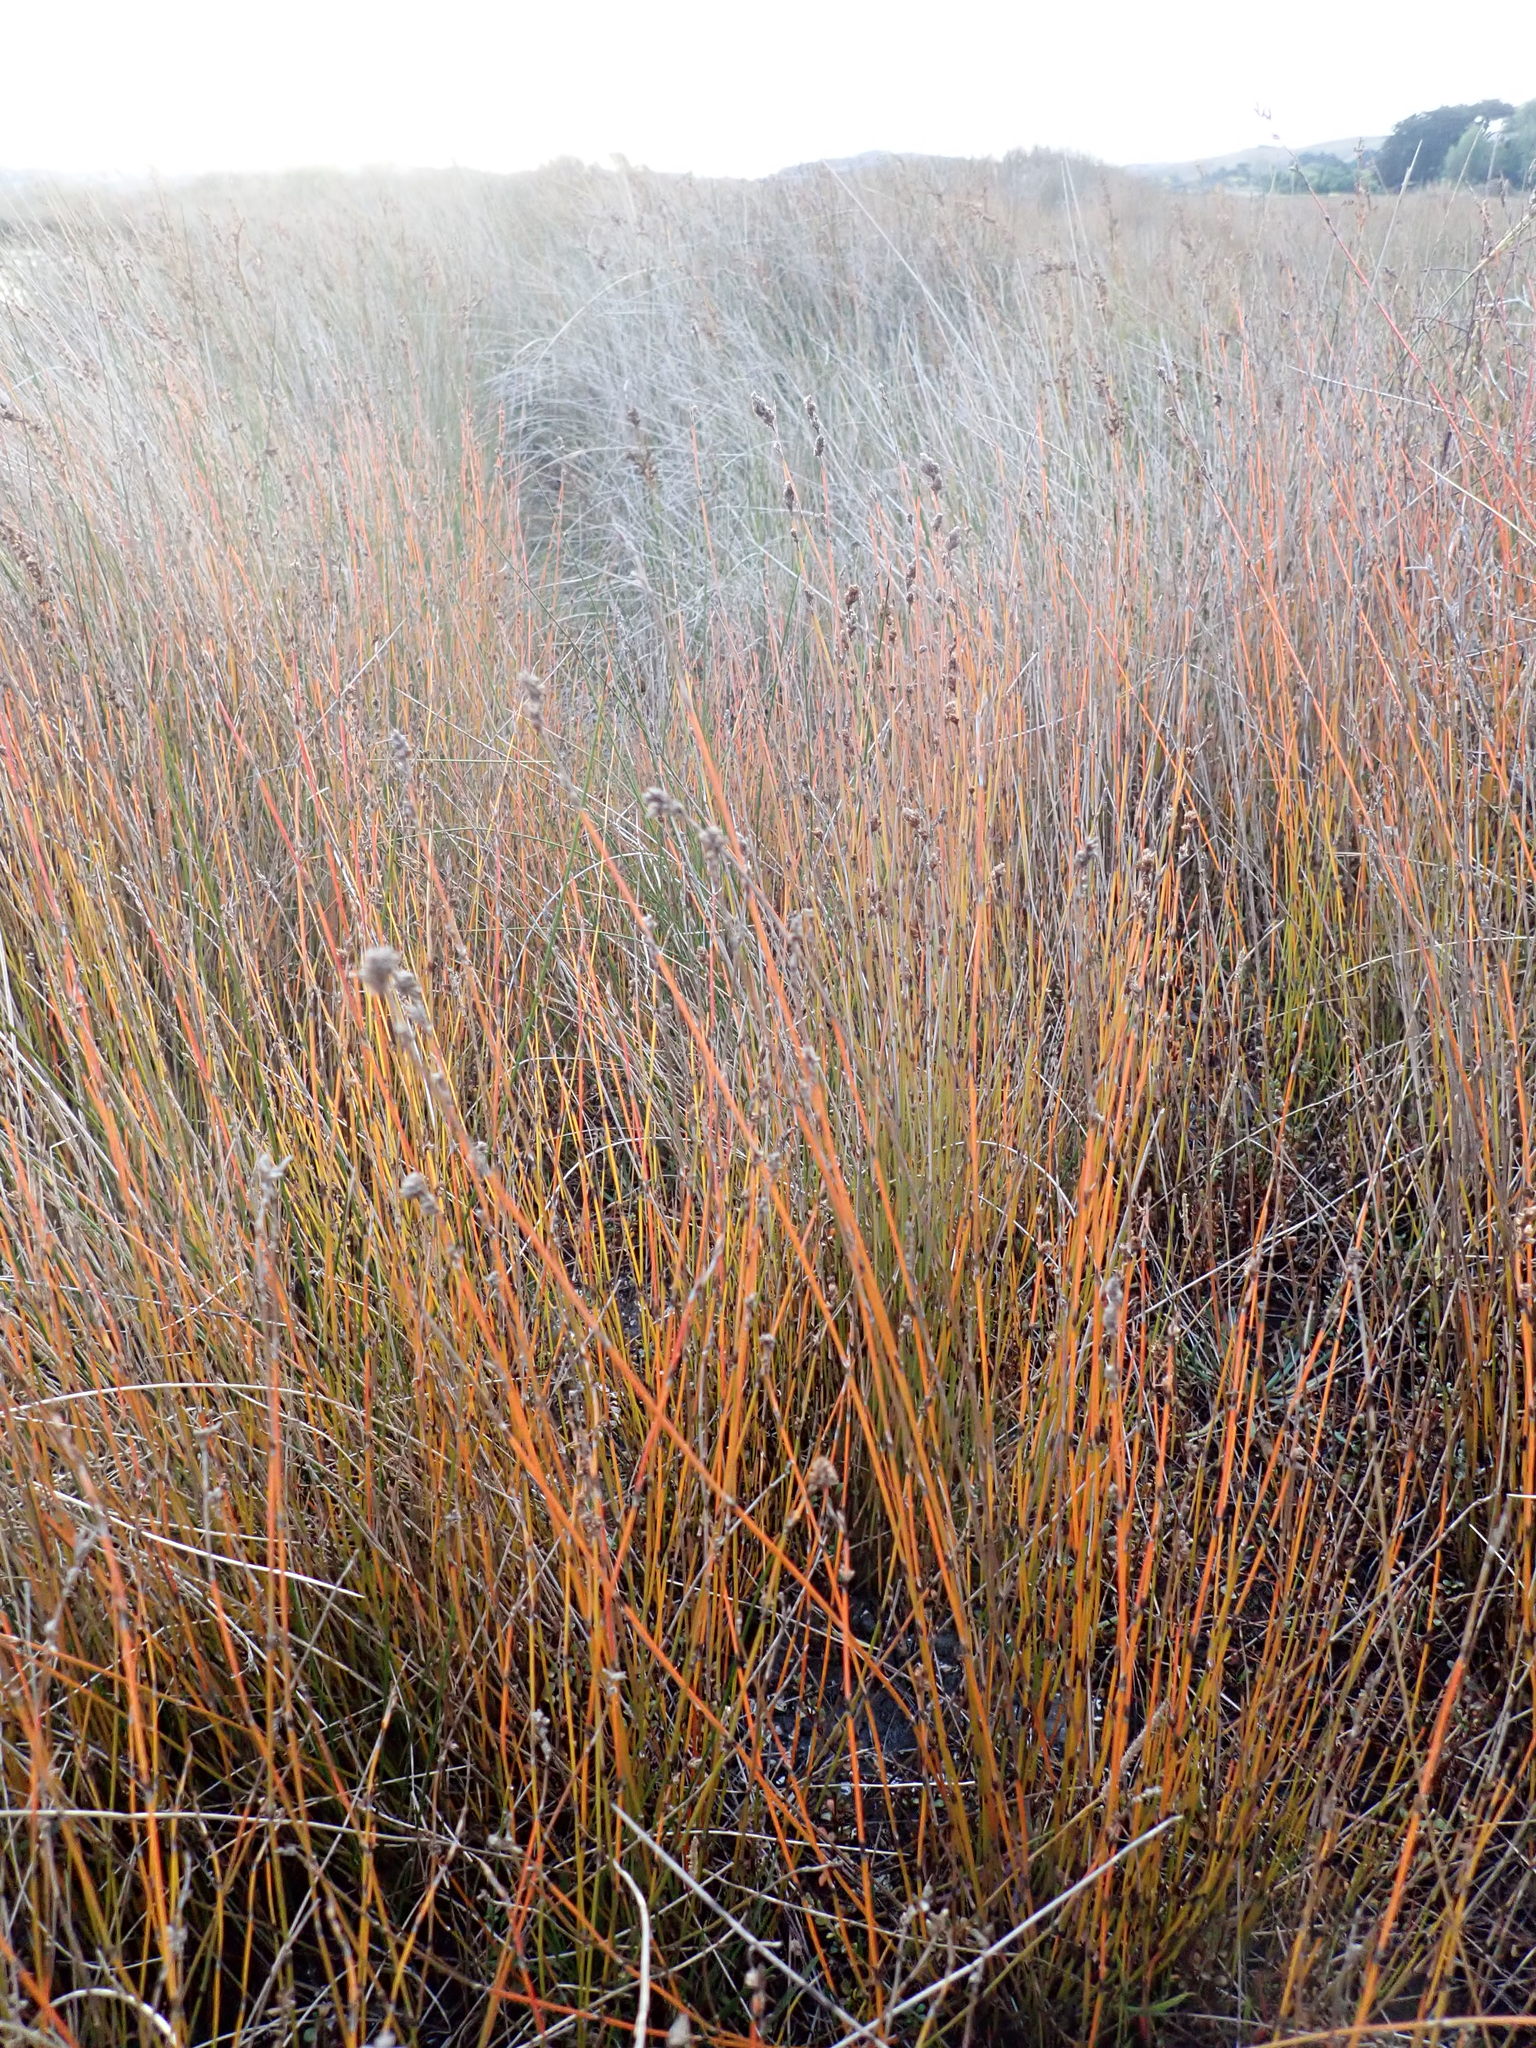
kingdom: Plantae
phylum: Tracheophyta
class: Liliopsida
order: Poales
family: Restionaceae
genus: Apodasmia
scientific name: Apodasmia similis
